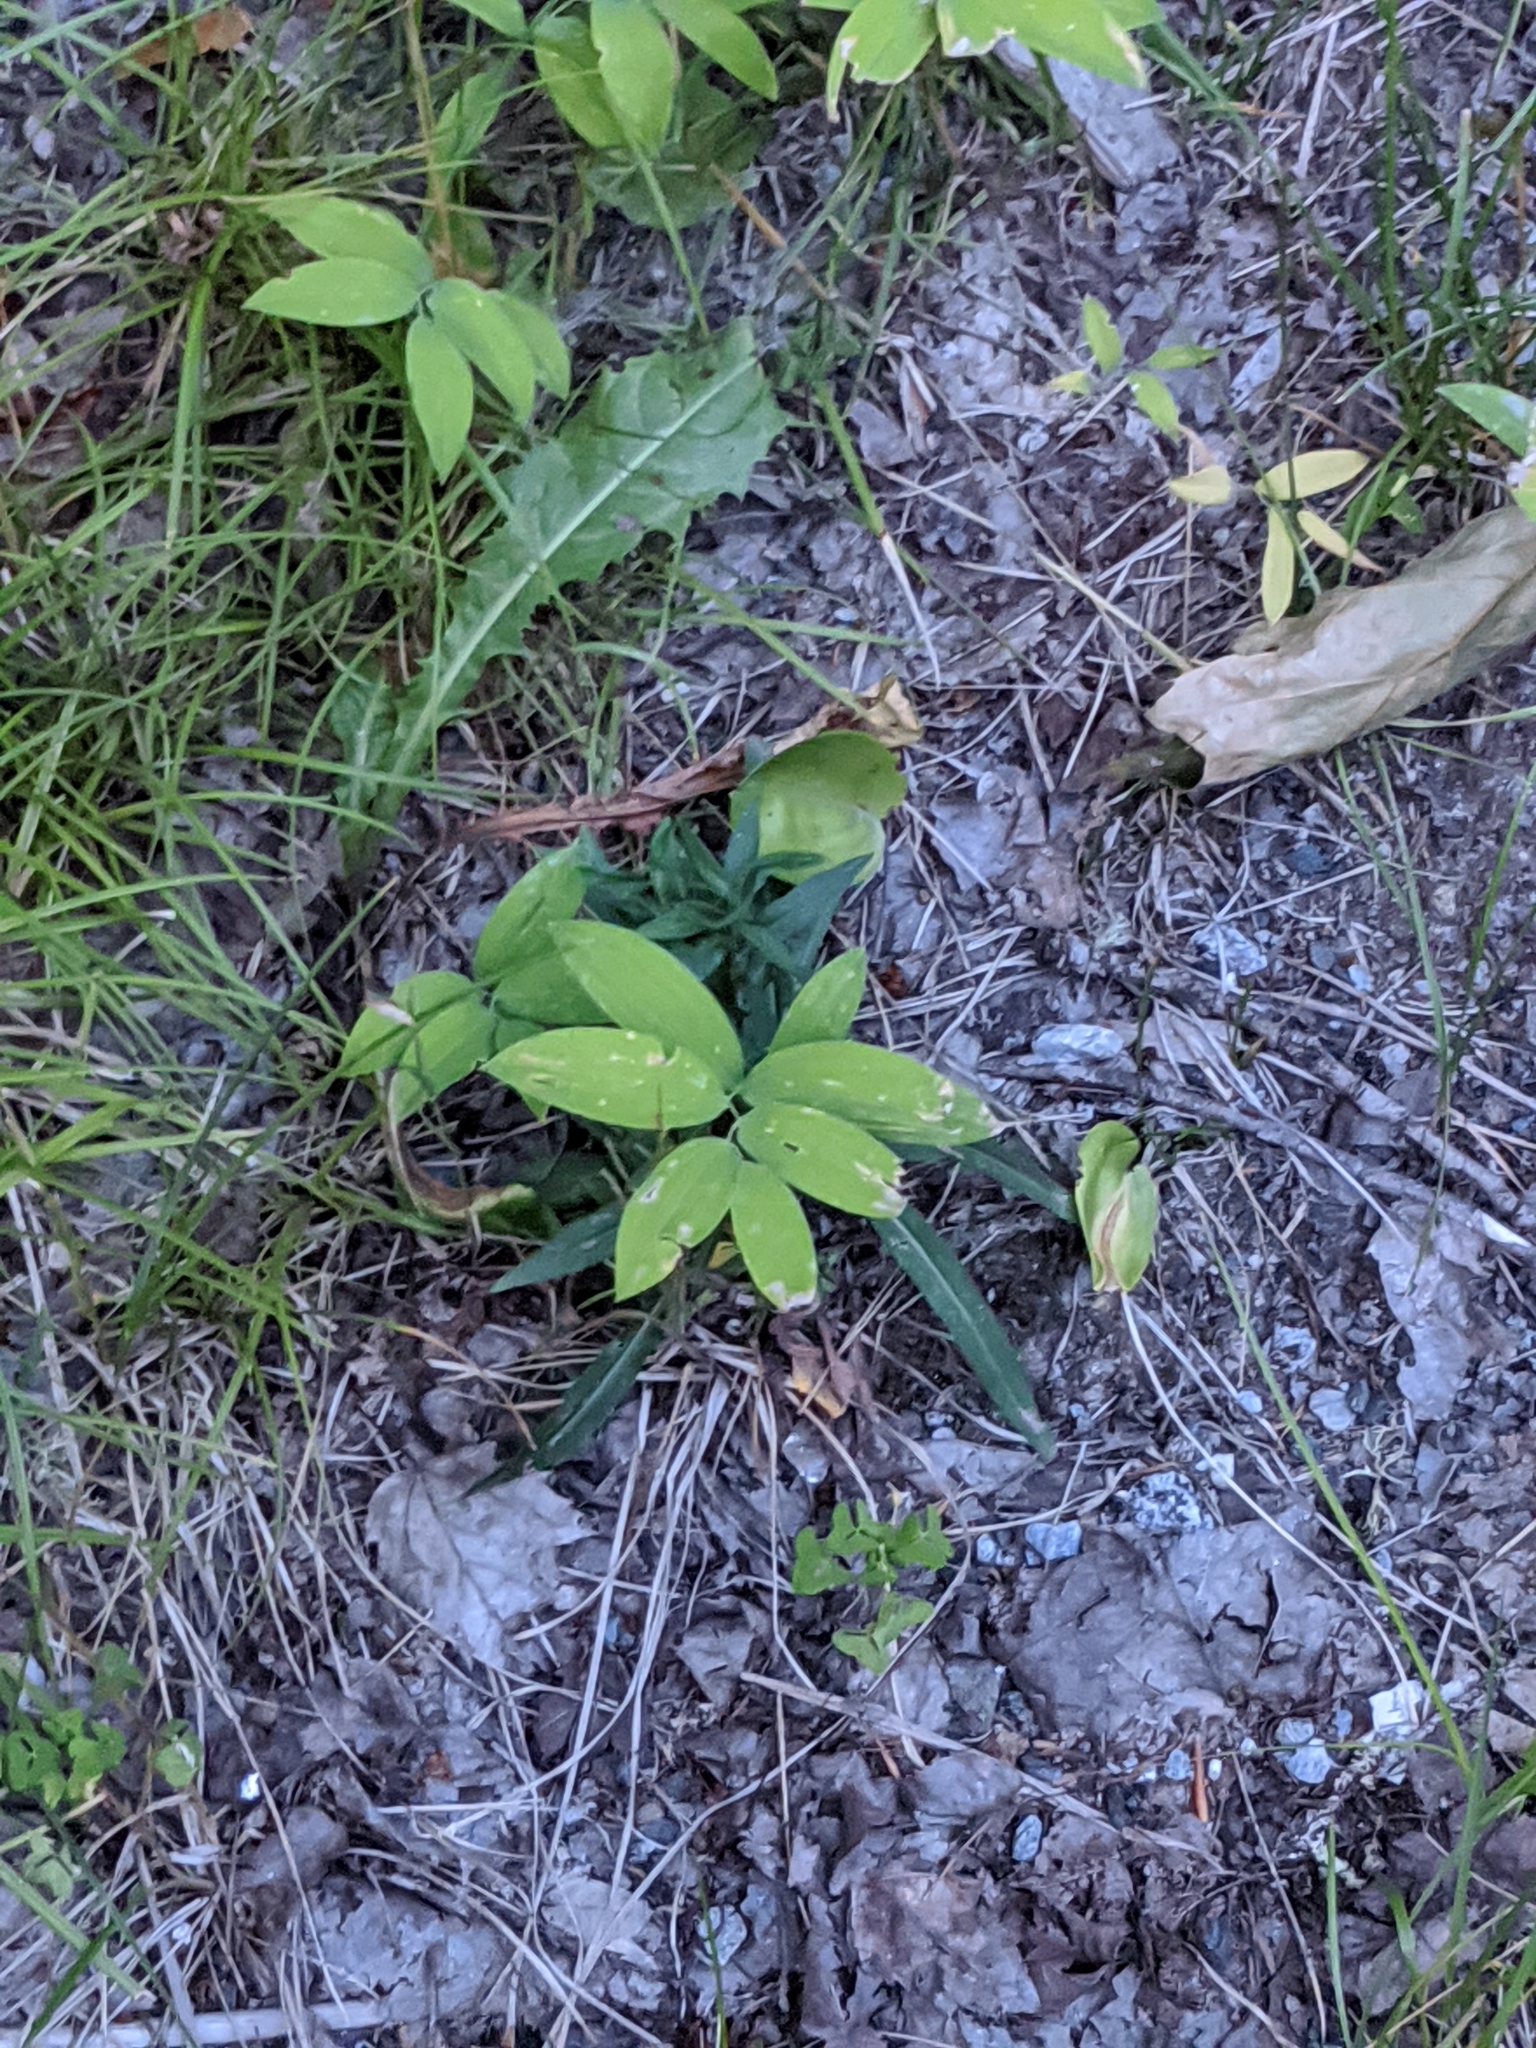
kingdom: Plantae
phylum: Tracheophyta
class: Liliopsida
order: Liliales
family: Colchicaceae
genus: Uvularia
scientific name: Uvularia sessilifolia
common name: Straw-lily
